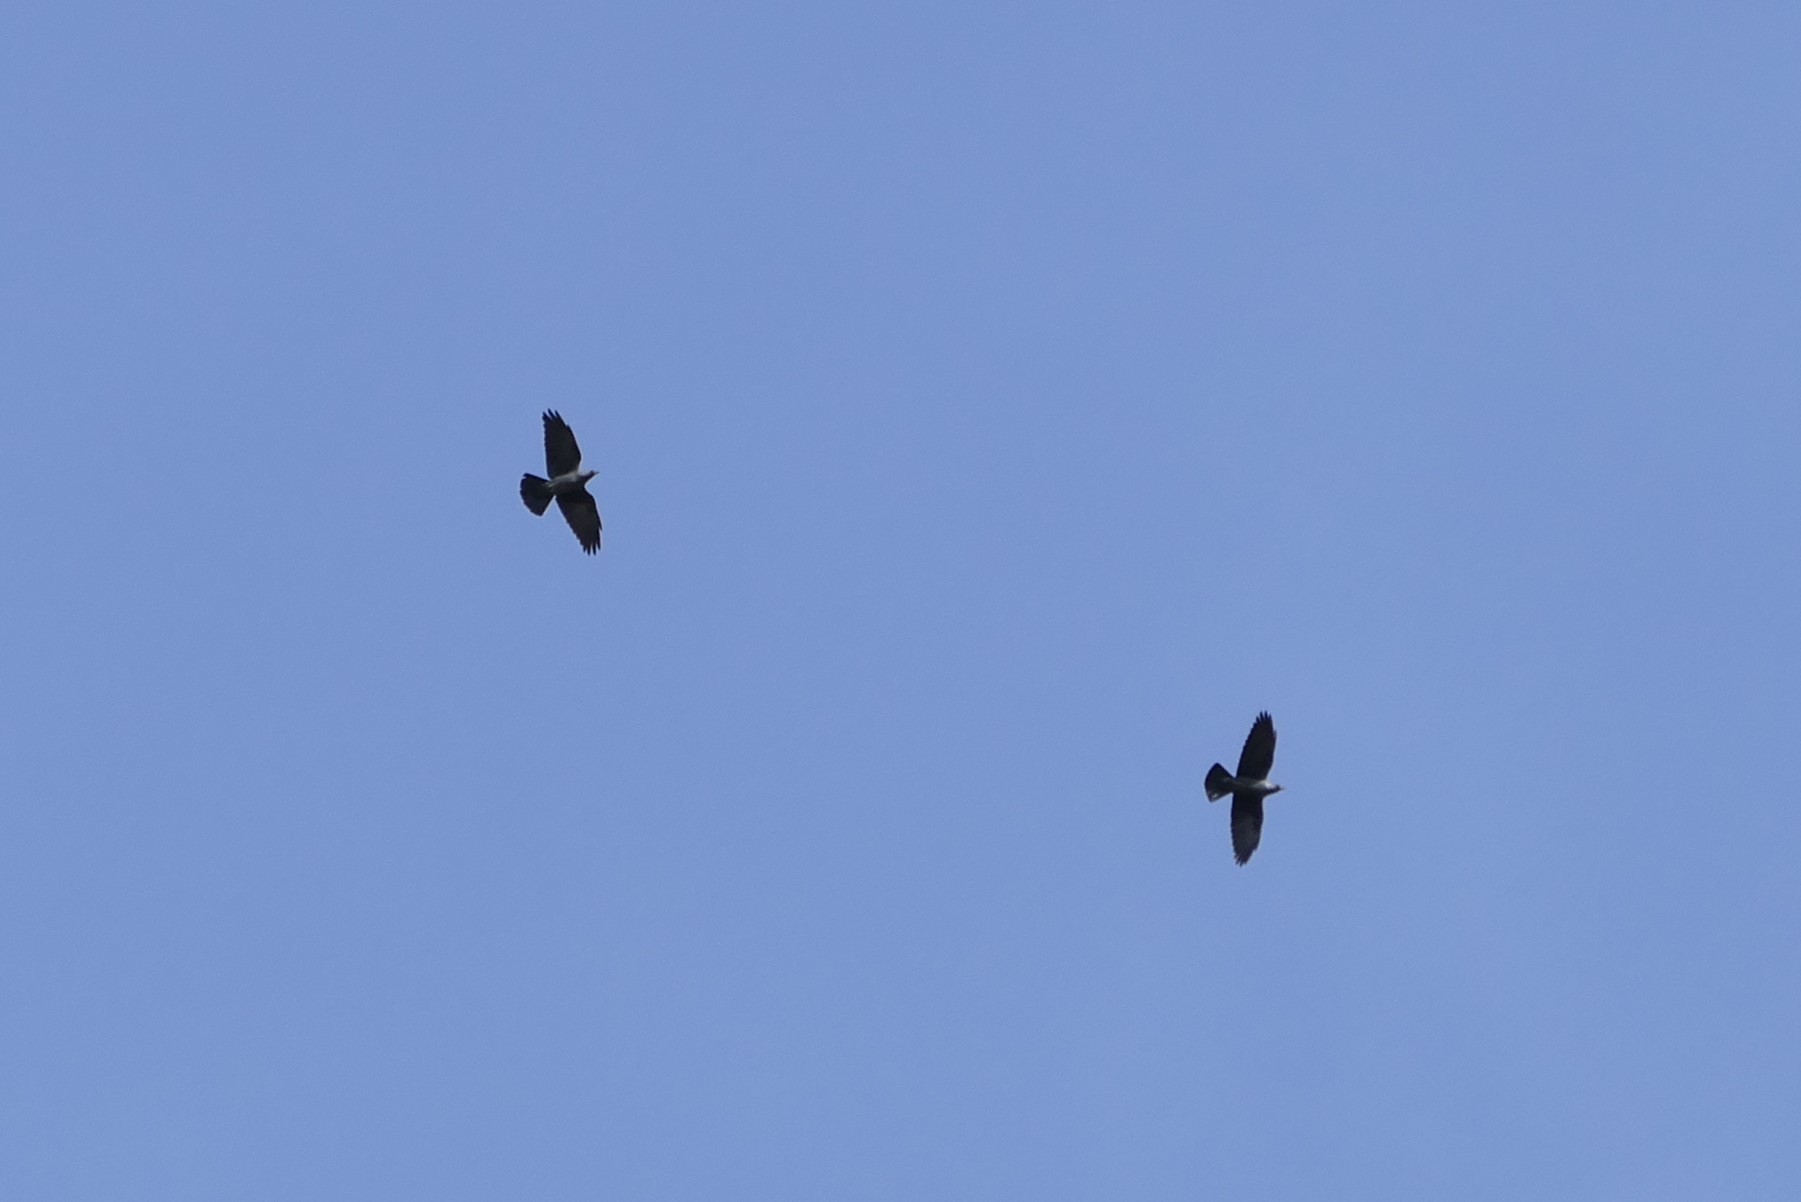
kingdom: Animalia
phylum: Chordata
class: Aves
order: Passeriformes
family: Corvidae
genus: Coloeus
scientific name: Coloeus monedula
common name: Western jackdaw
